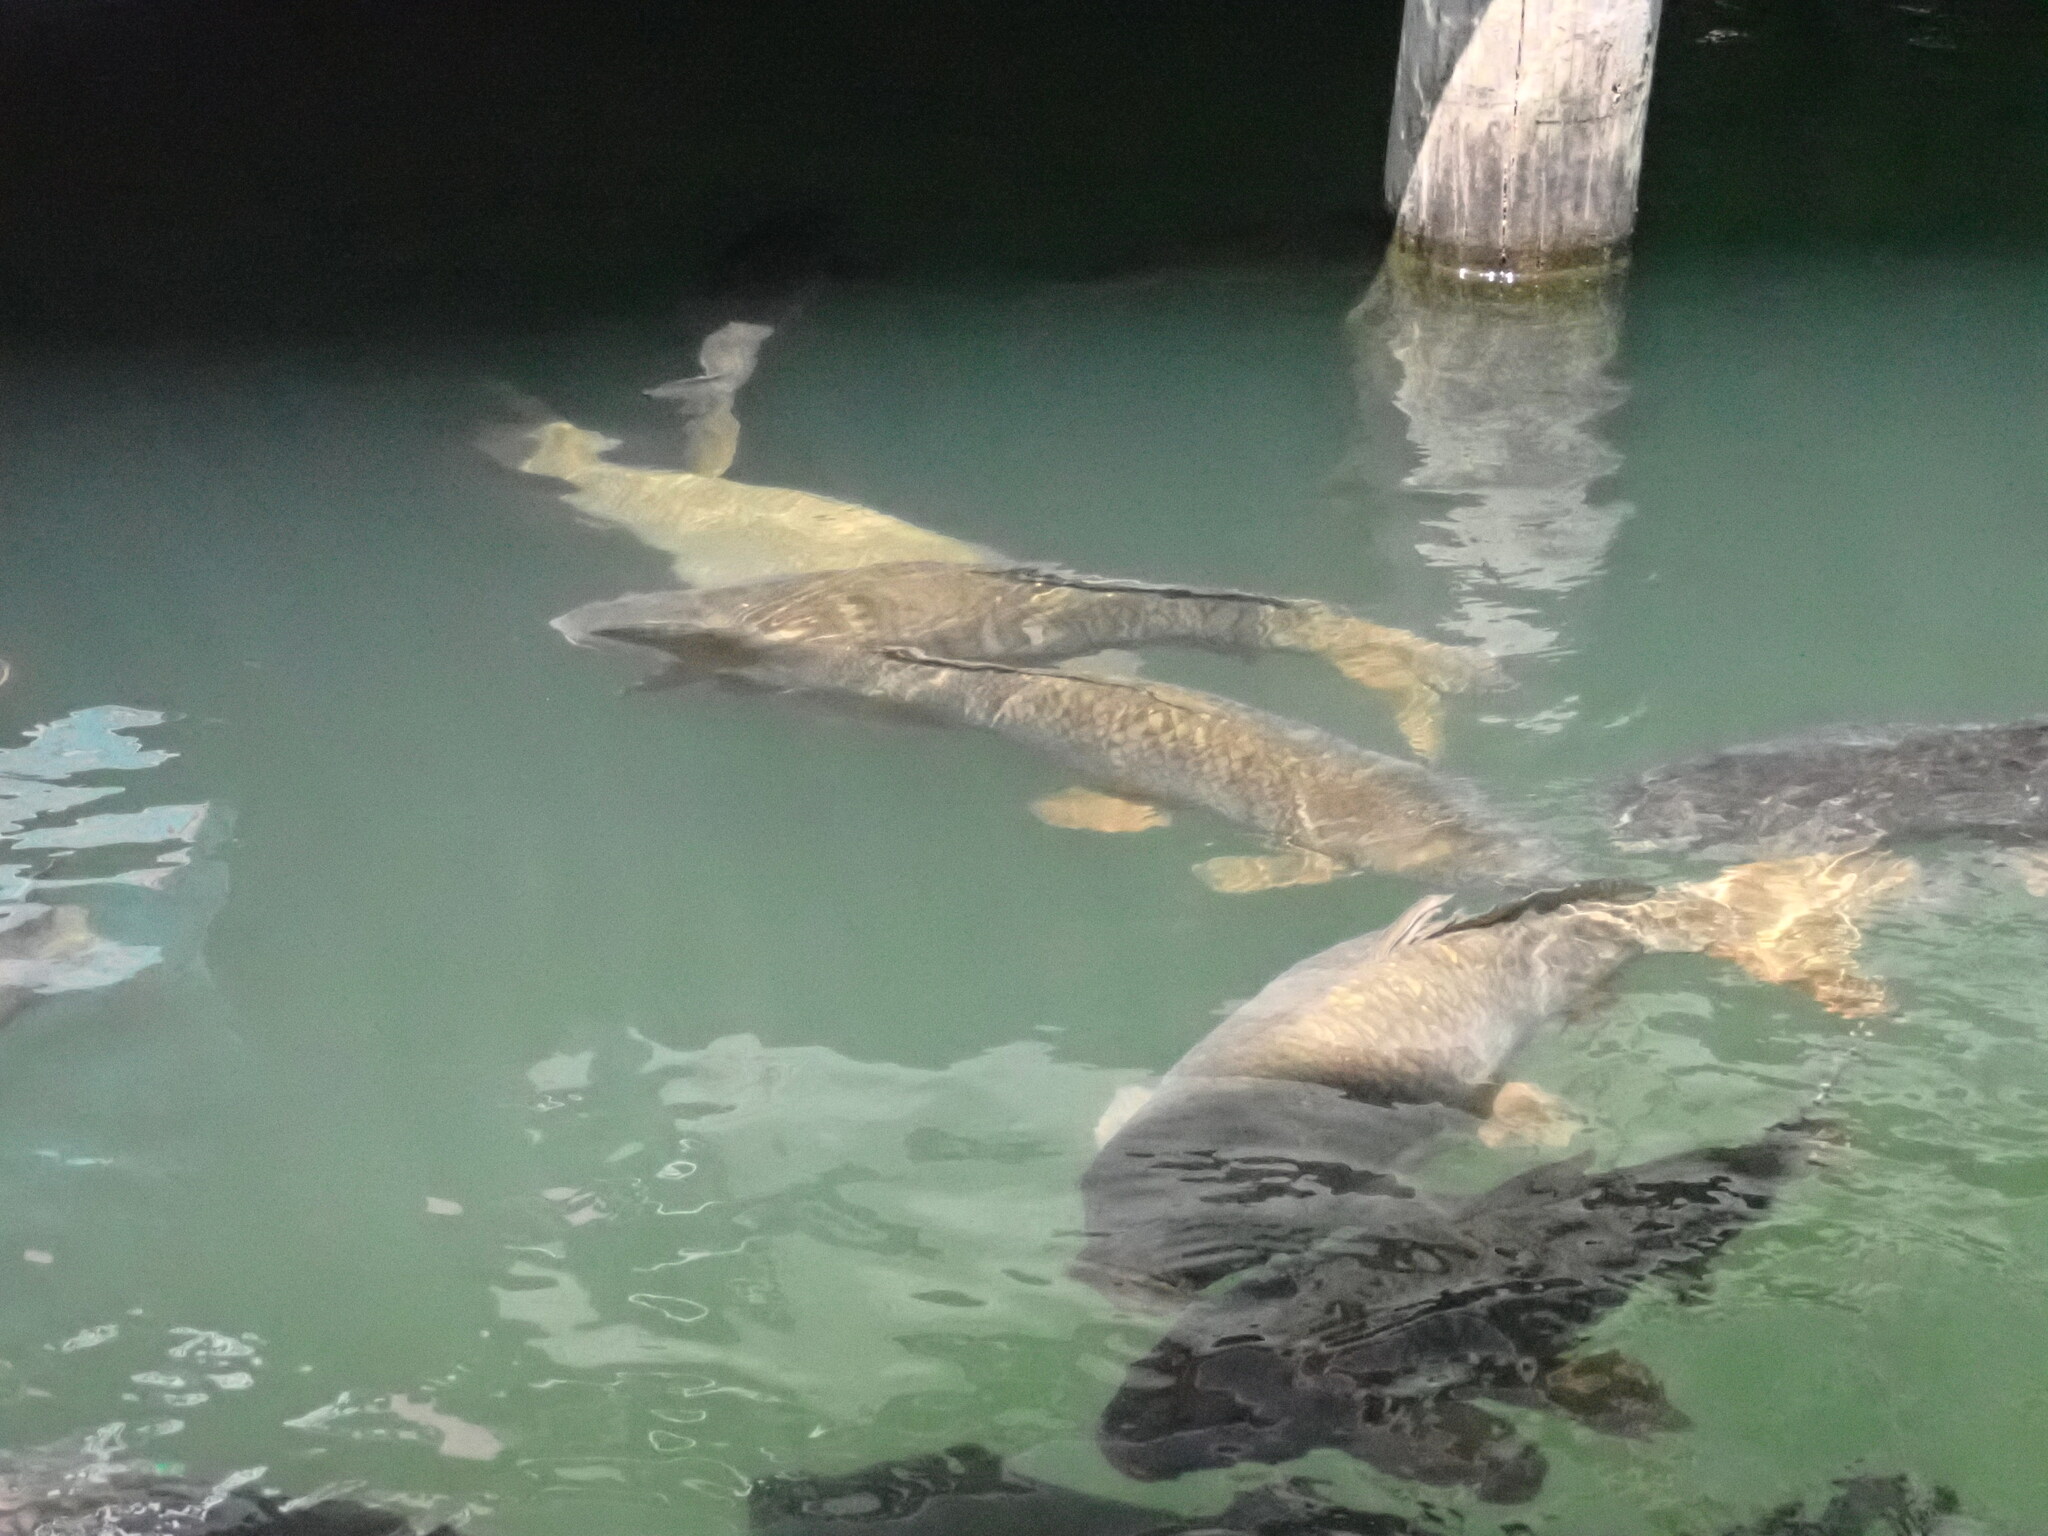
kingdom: Animalia
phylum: Chordata
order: Cypriniformes
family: Cyprinidae
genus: Cyprinus
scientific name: Cyprinus carpio
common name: Common carp
